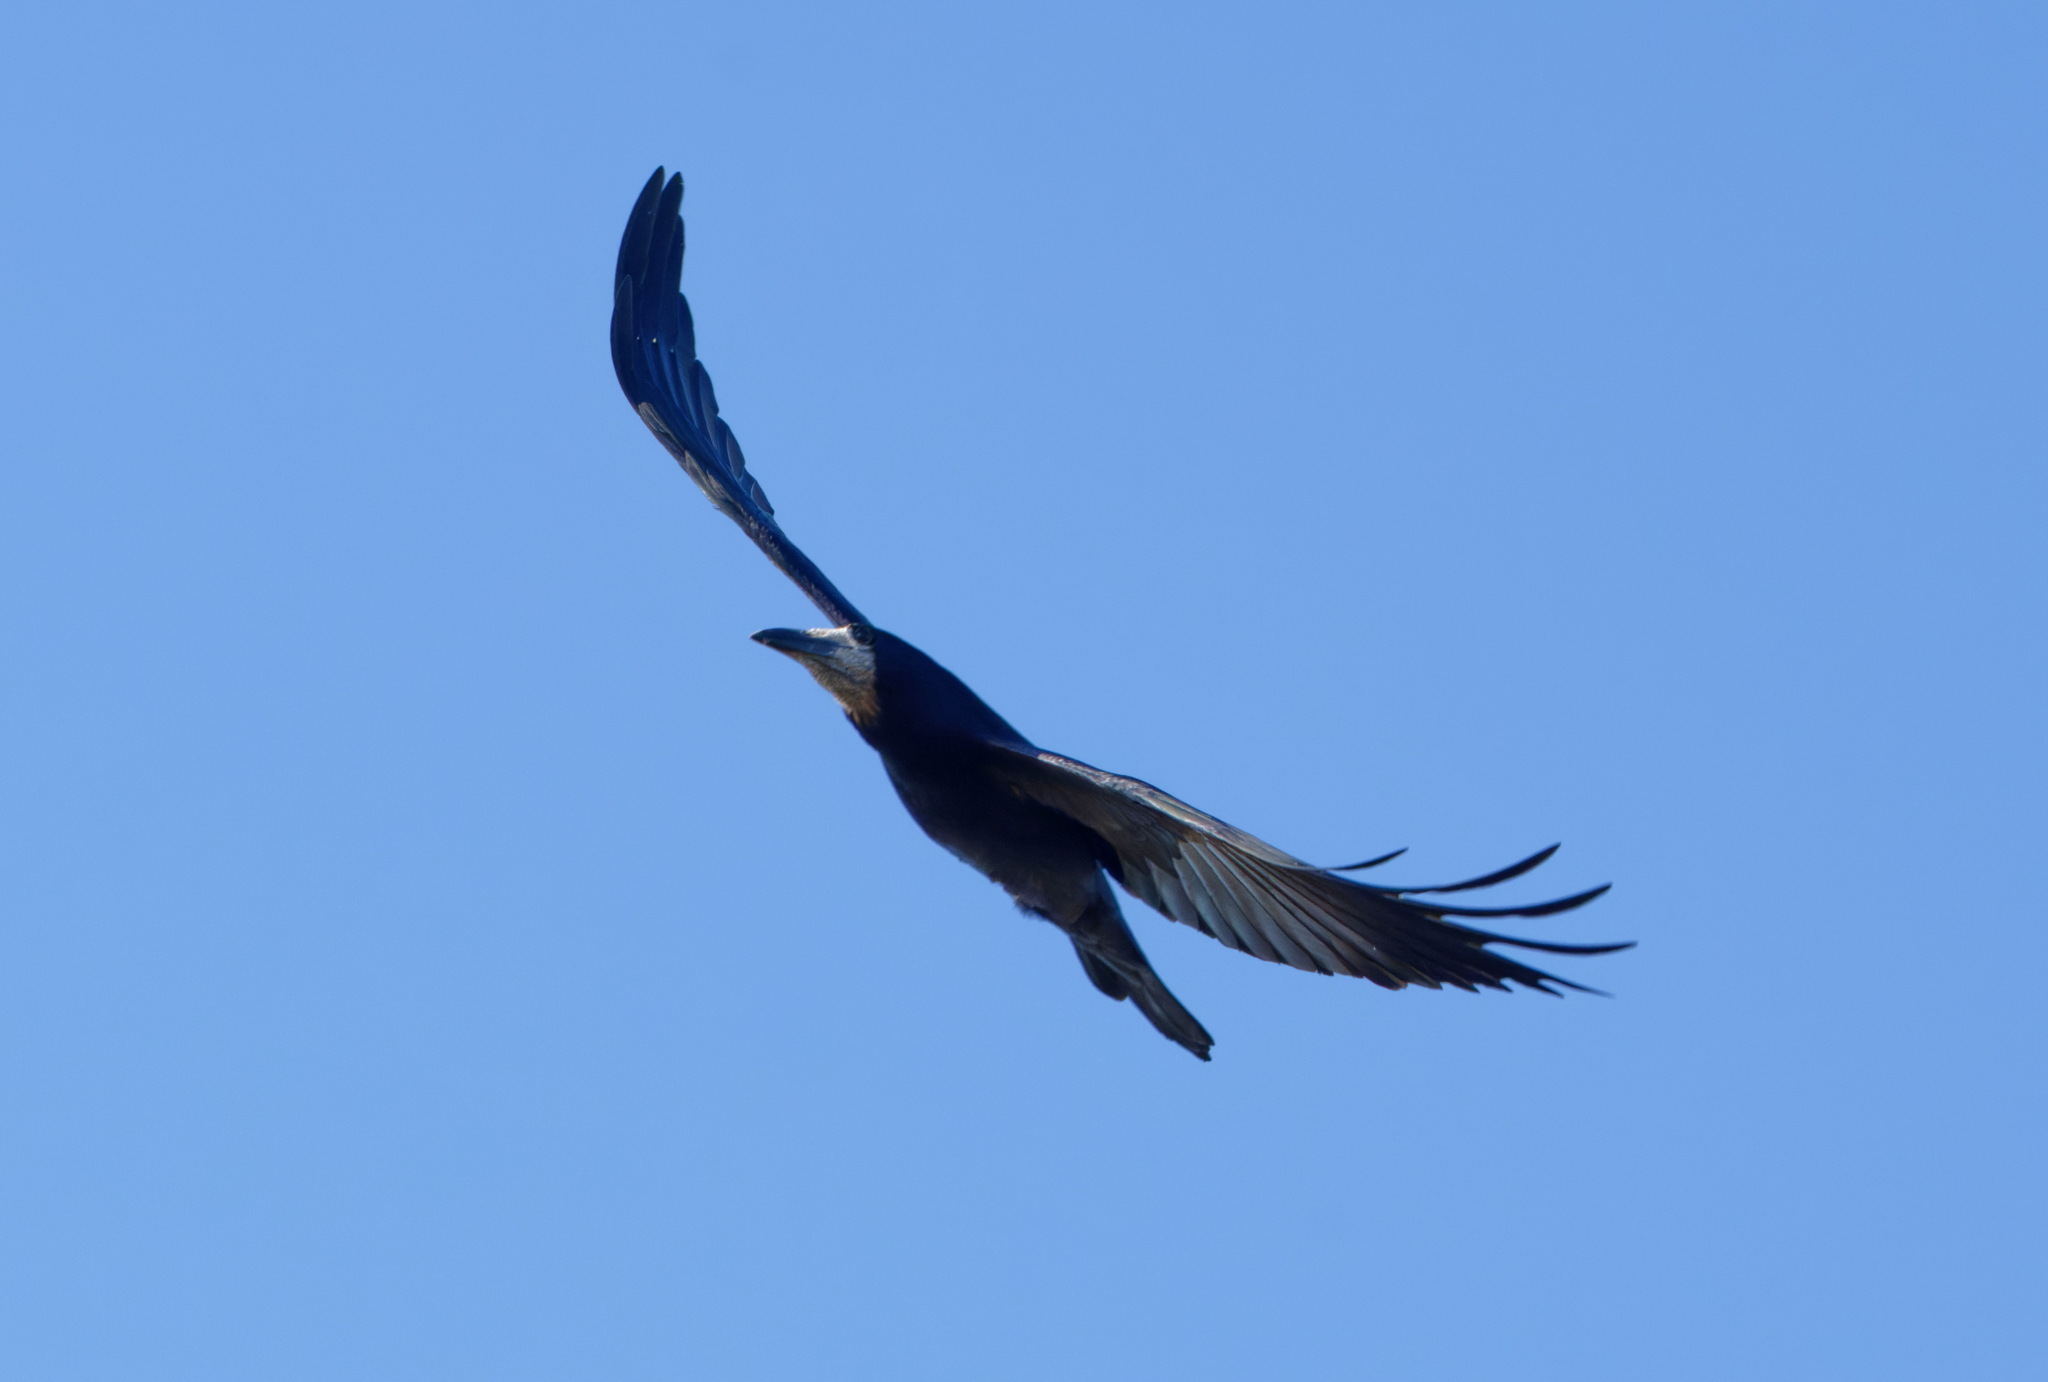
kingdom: Animalia
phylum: Chordata
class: Aves
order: Passeriformes
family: Corvidae
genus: Corvus
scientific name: Corvus frugilegus
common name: Rook
